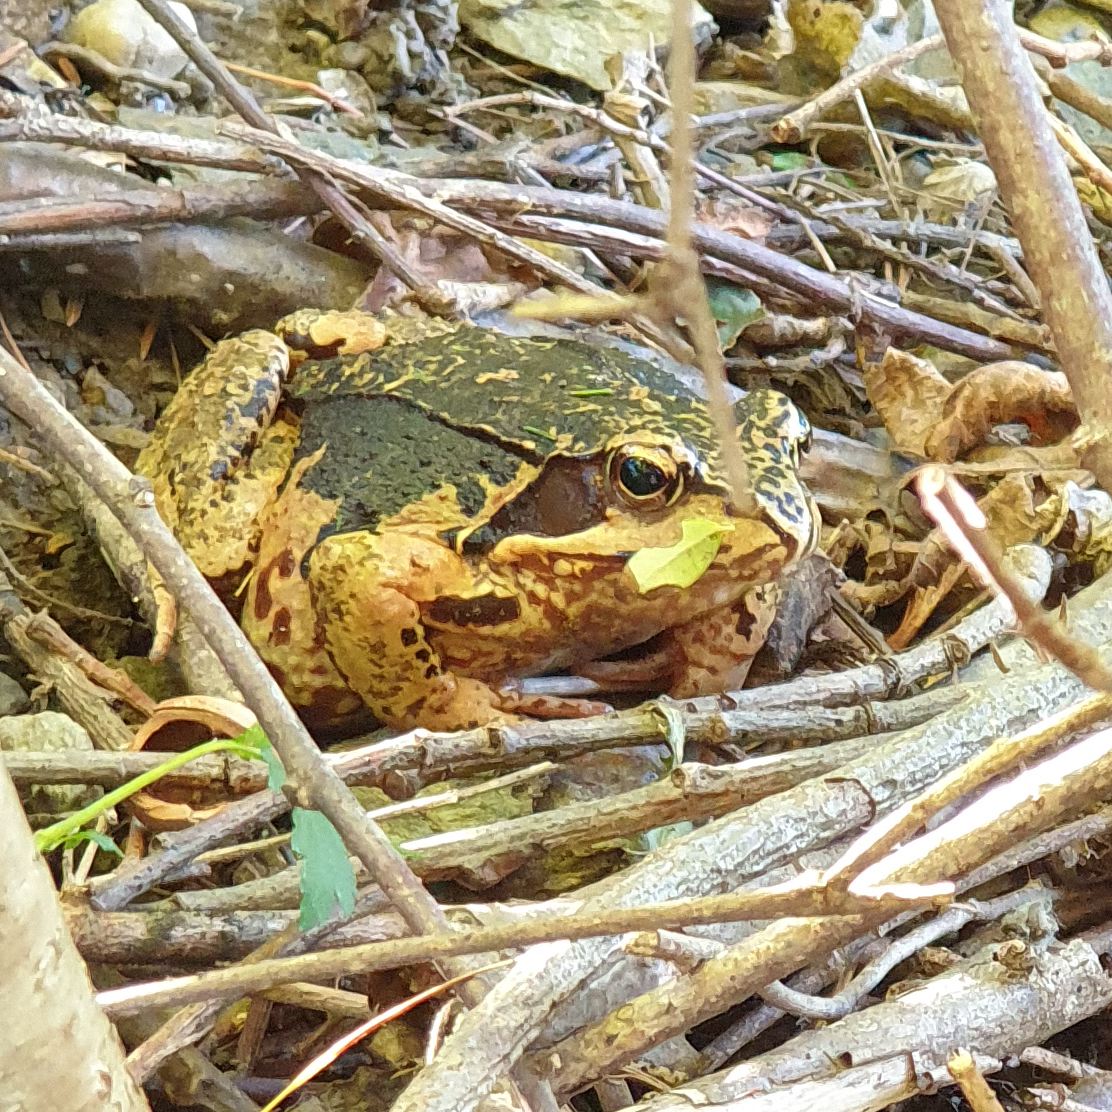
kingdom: Animalia
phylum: Chordata
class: Amphibia
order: Anura
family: Ranidae
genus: Rana
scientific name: Rana temporaria
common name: Common frog
